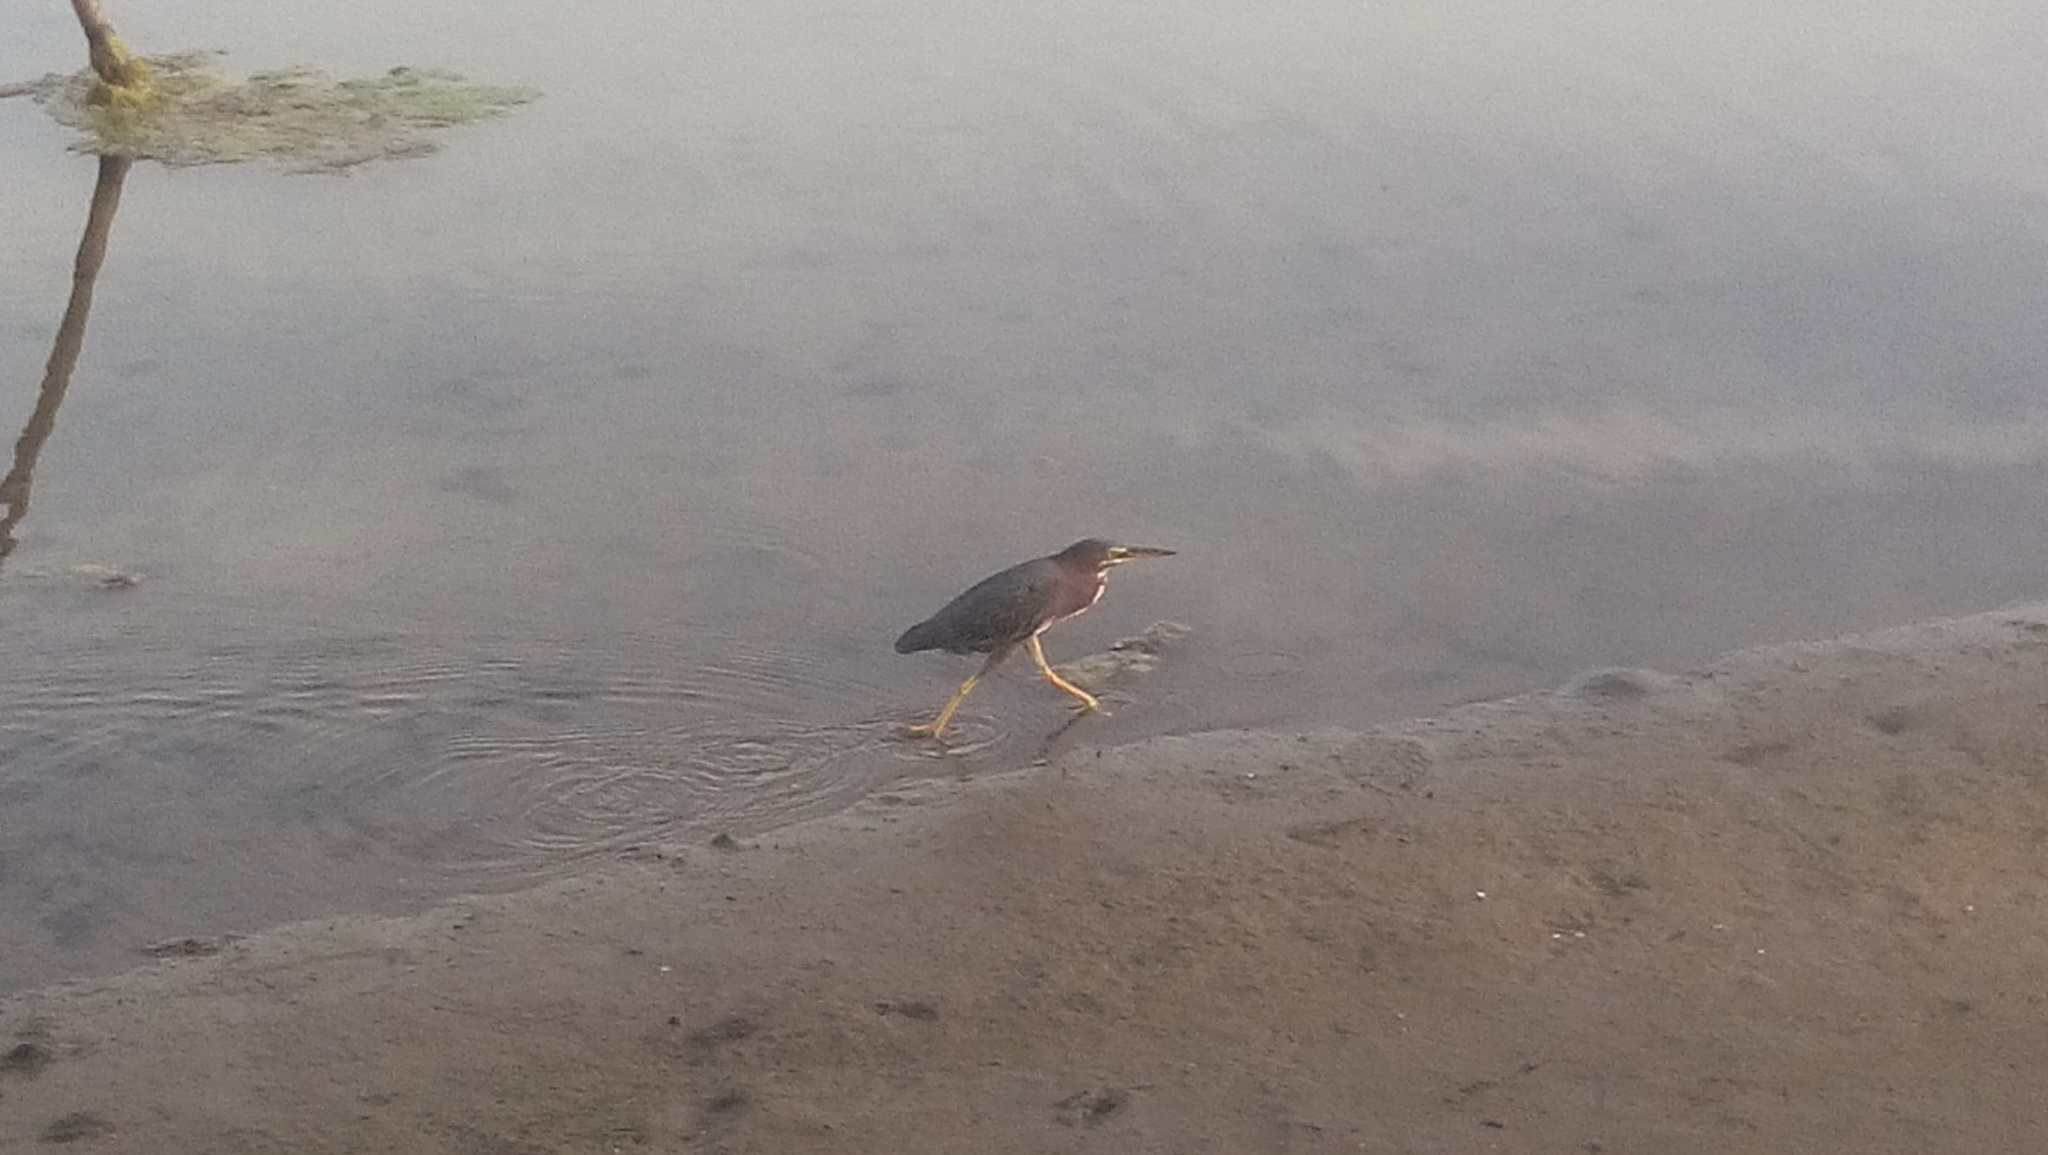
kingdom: Animalia
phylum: Chordata
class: Aves
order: Pelecaniformes
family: Ardeidae
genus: Butorides
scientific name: Butorides virescens
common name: Green heron
